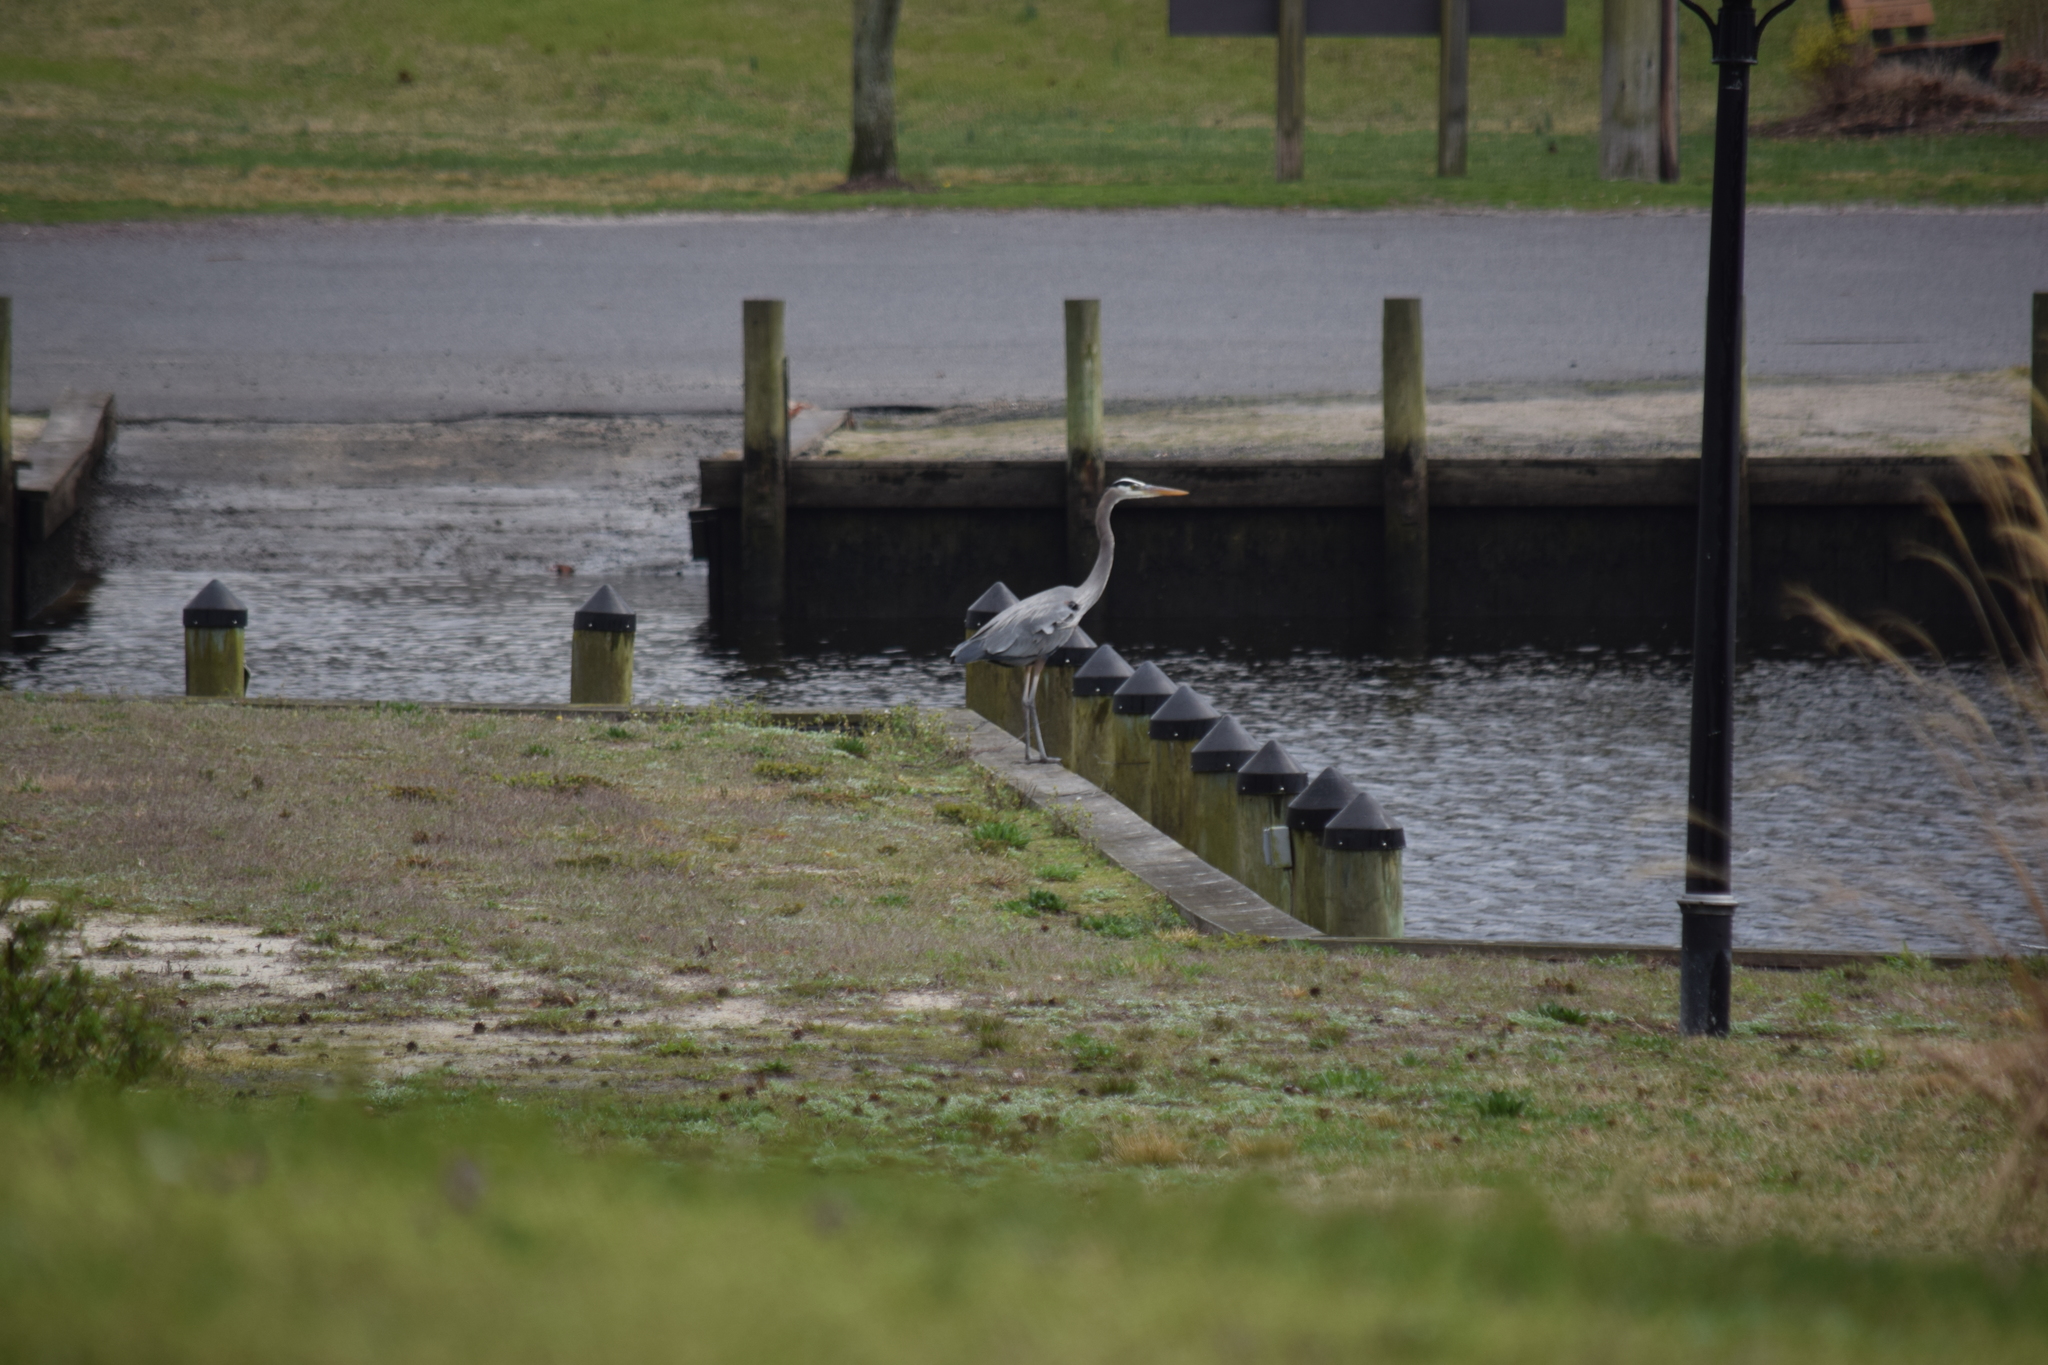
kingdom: Animalia
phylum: Chordata
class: Aves
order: Pelecaniformes
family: Ardeidae
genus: Ardea
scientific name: Ardea herodias
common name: Great blue heron
